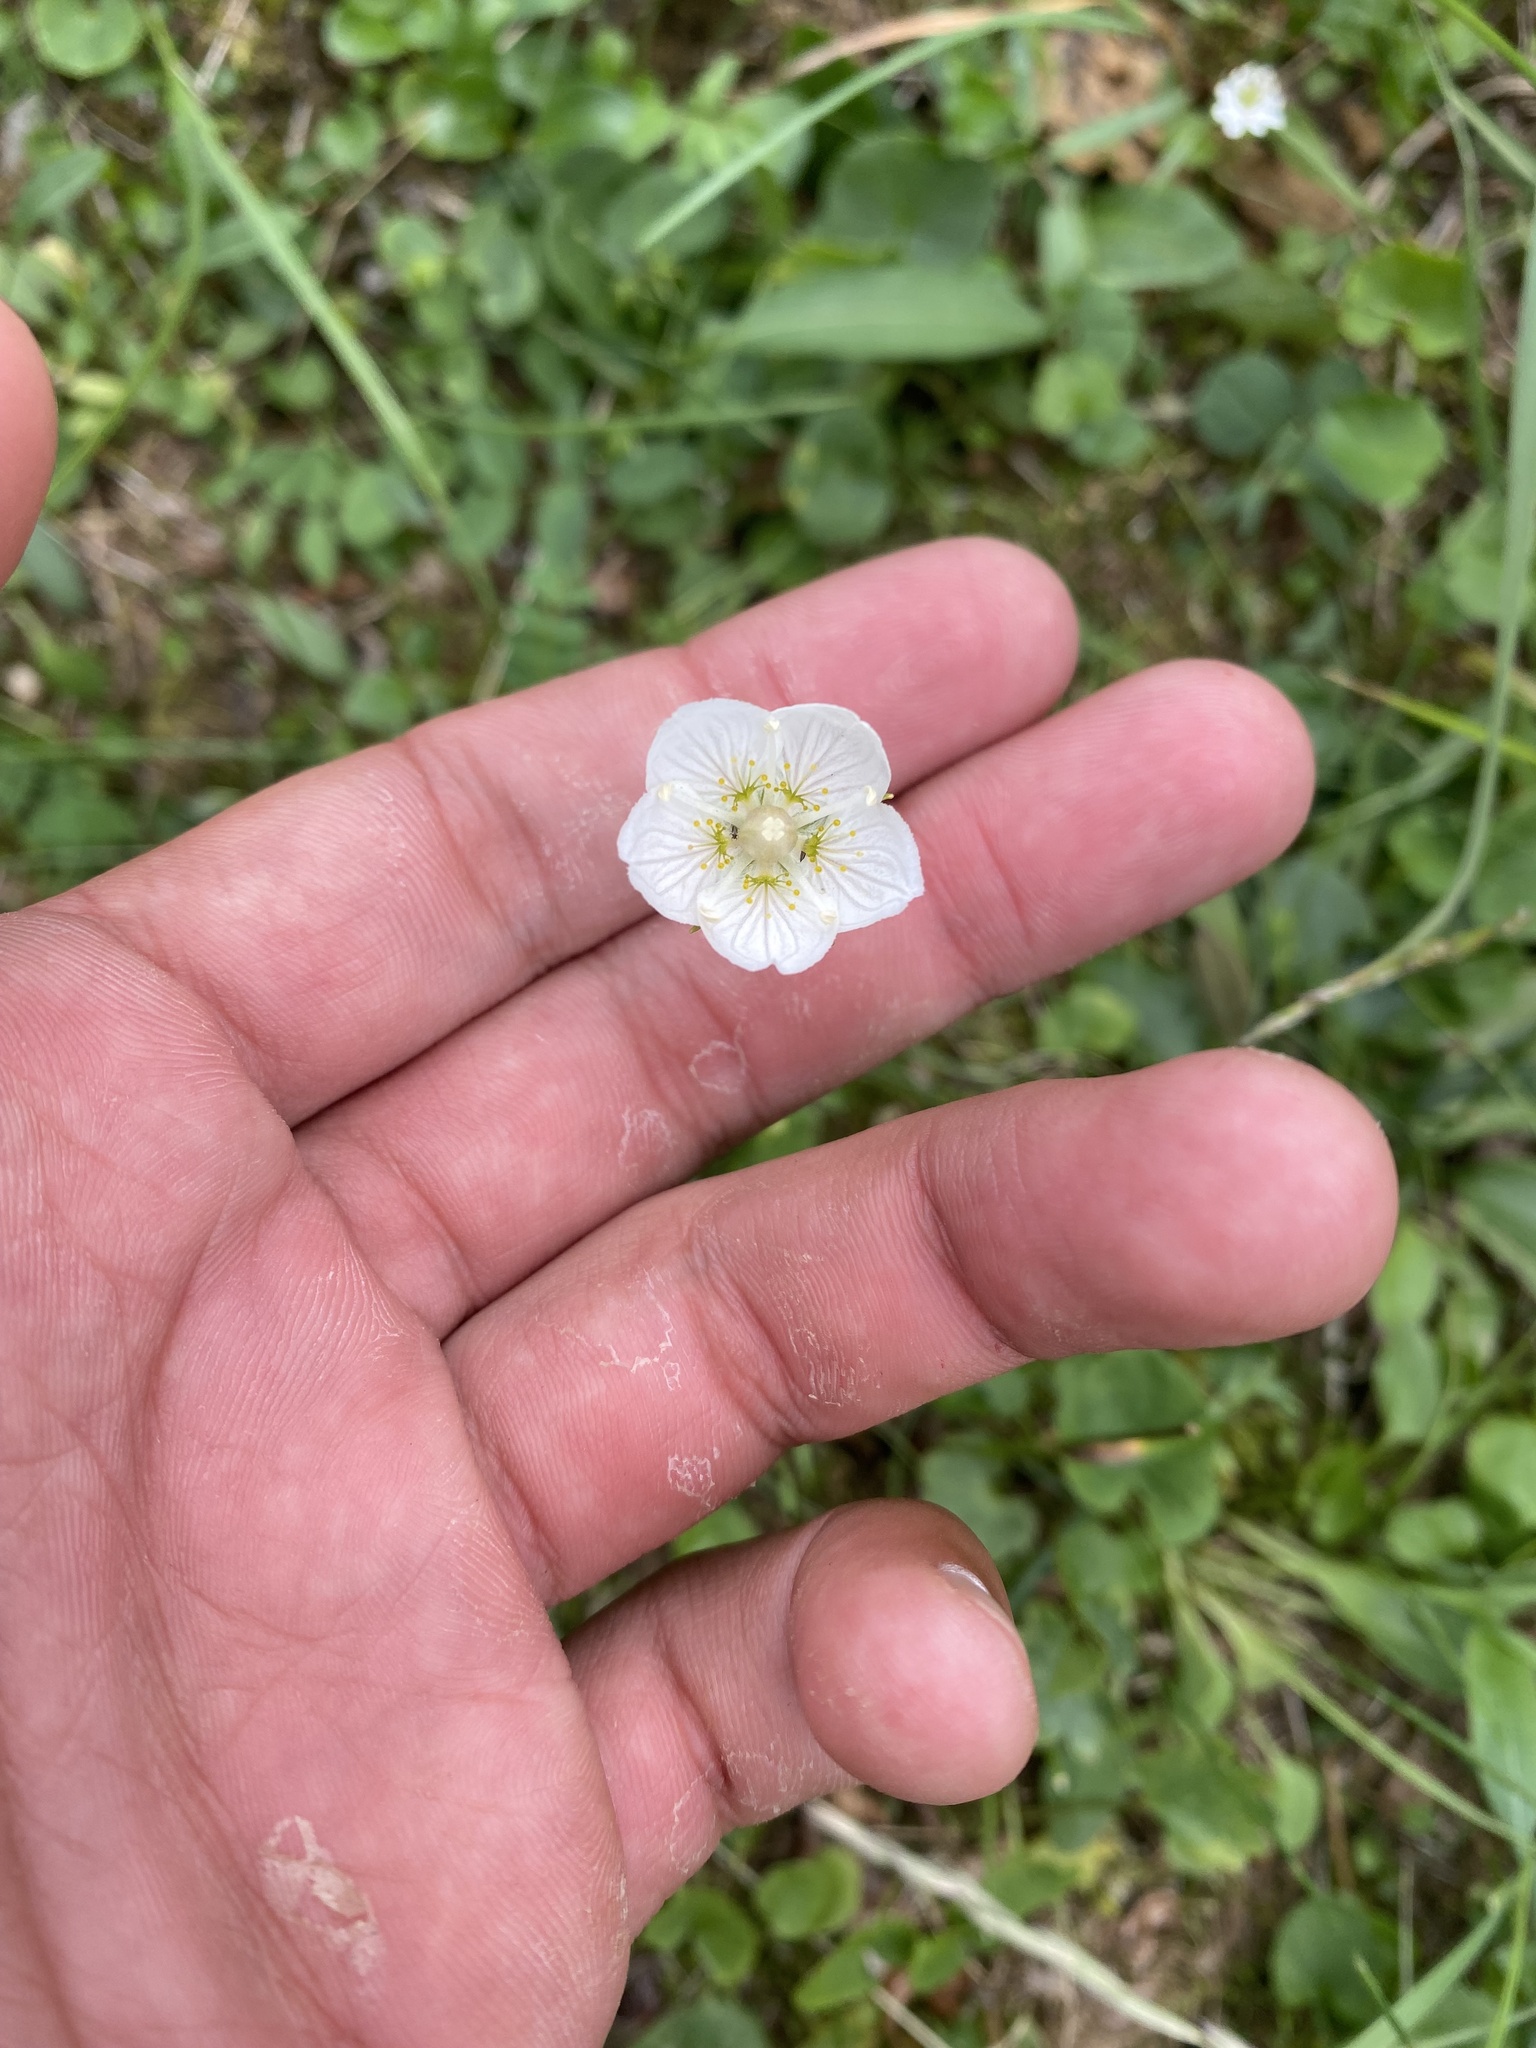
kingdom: Plantae
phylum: Tracheophyta
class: Magnoliopsida
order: Celastrales
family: Parnassiaceae
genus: Parnassia
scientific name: Parnassia palustris
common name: Grass-of-parnassus
